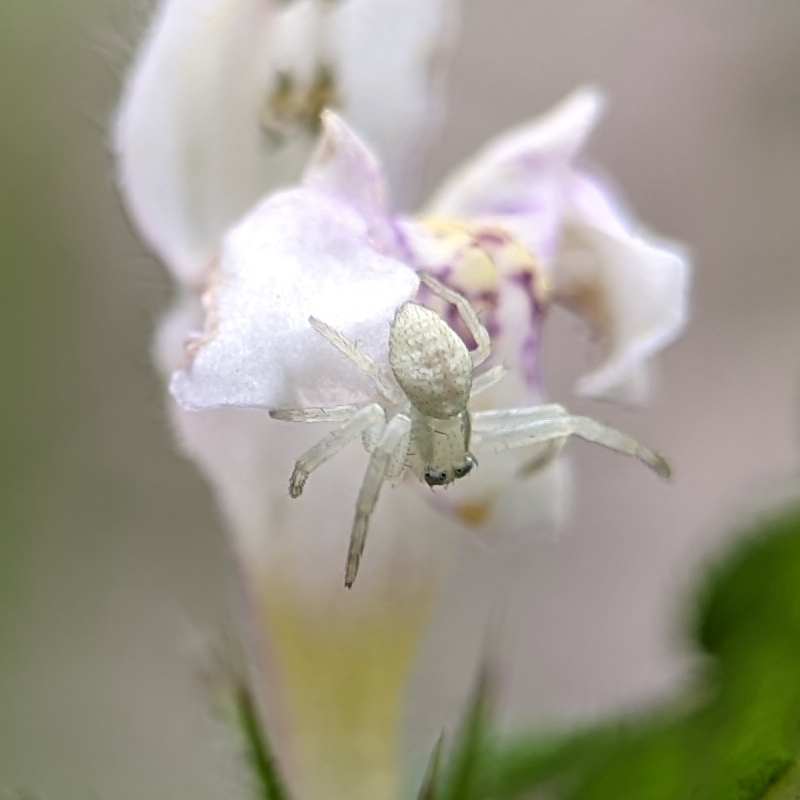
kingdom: Animalia
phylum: Arthropoda
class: Arachnida
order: Araneae
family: Thomisidae
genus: Misumena
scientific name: Misumena vatia
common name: Goldenrod crab spider
